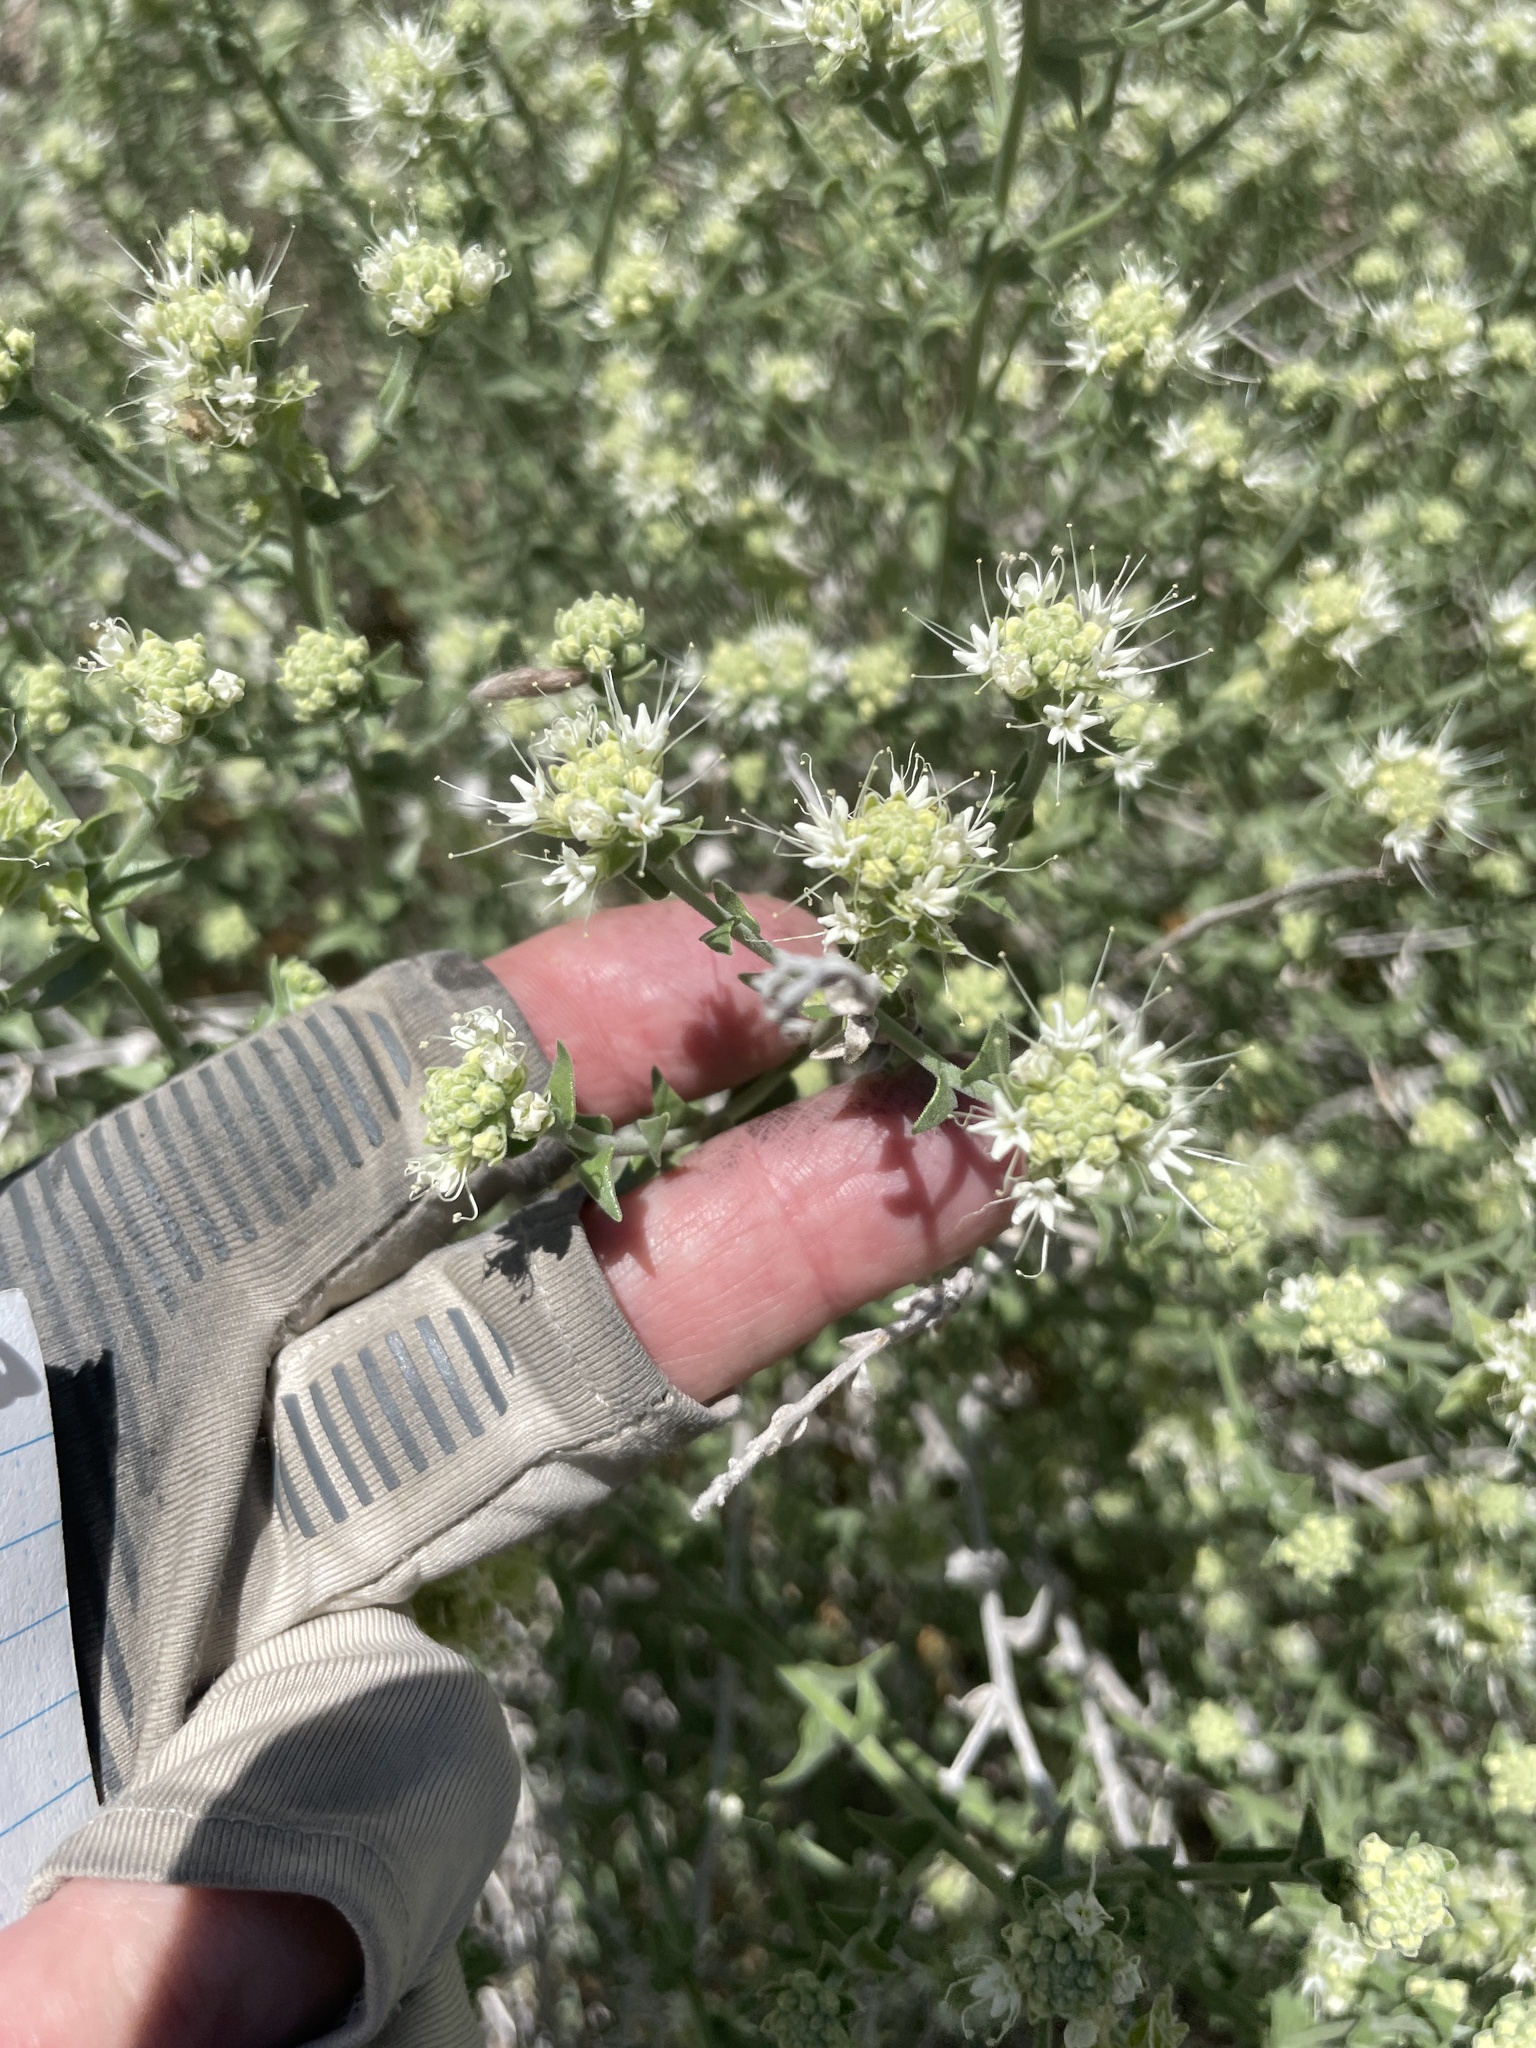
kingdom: Plantae
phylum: Tracheophyta
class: Magnoliopsida
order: Cornales
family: Loasaceae
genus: Petalonyx
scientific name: Petalonyx thurberi
